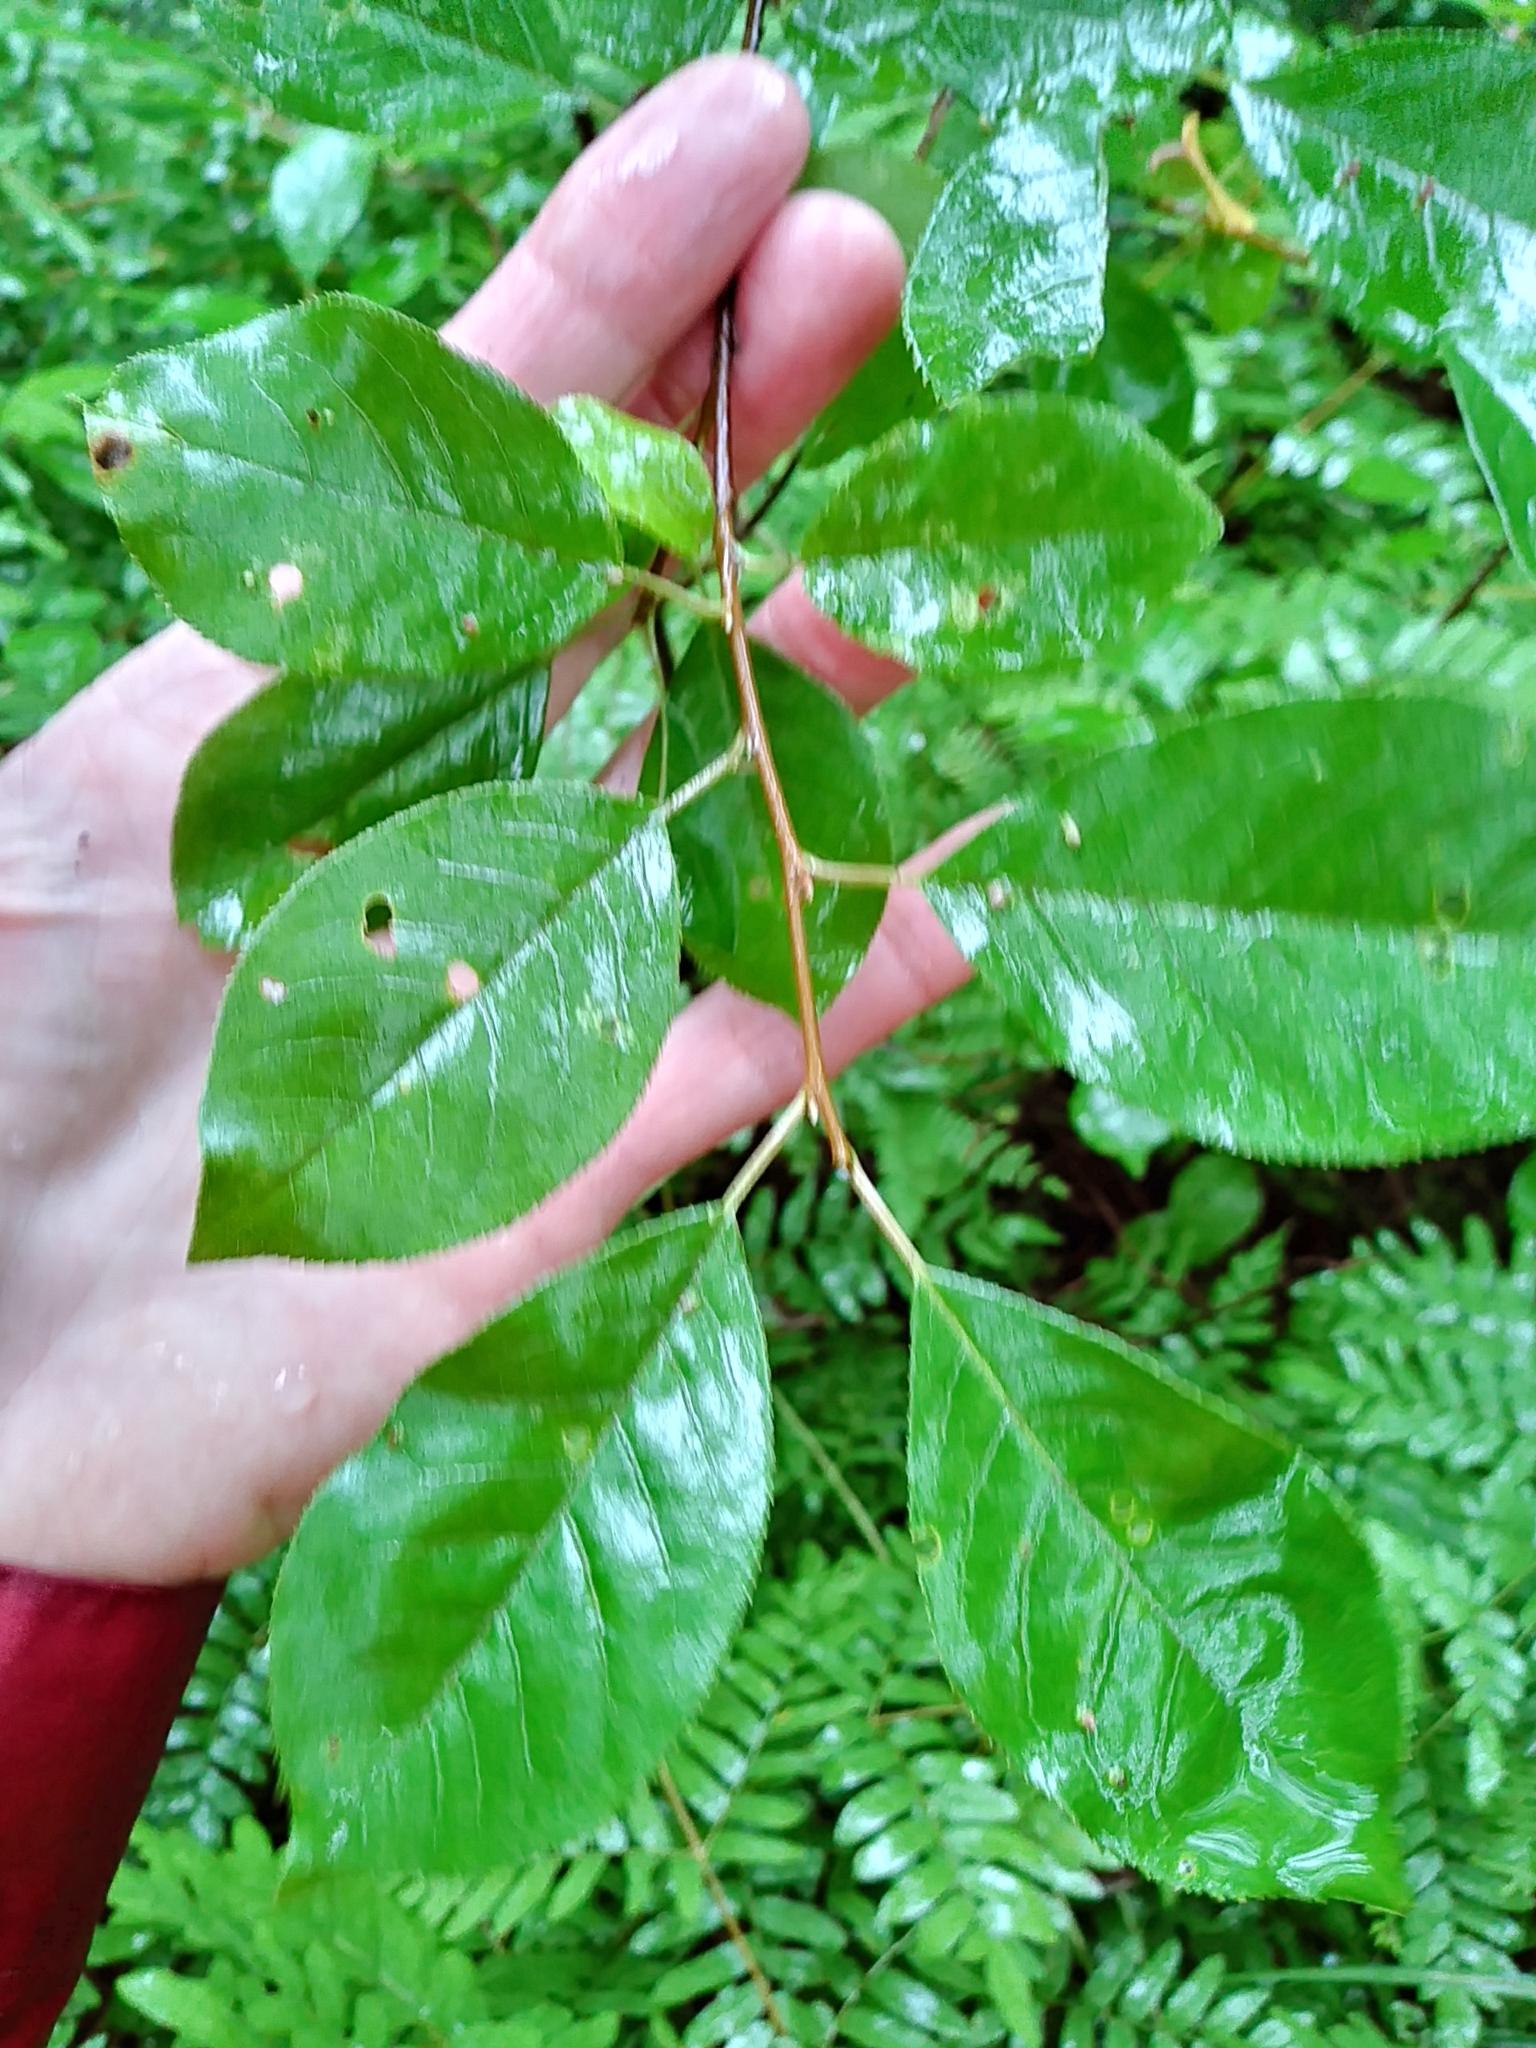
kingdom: Plantae
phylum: Tracheophyta
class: Magnoliopsida
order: Rosales
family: Rosaceae
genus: Prunus
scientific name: Prunus virginiana
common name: Chokecherry
